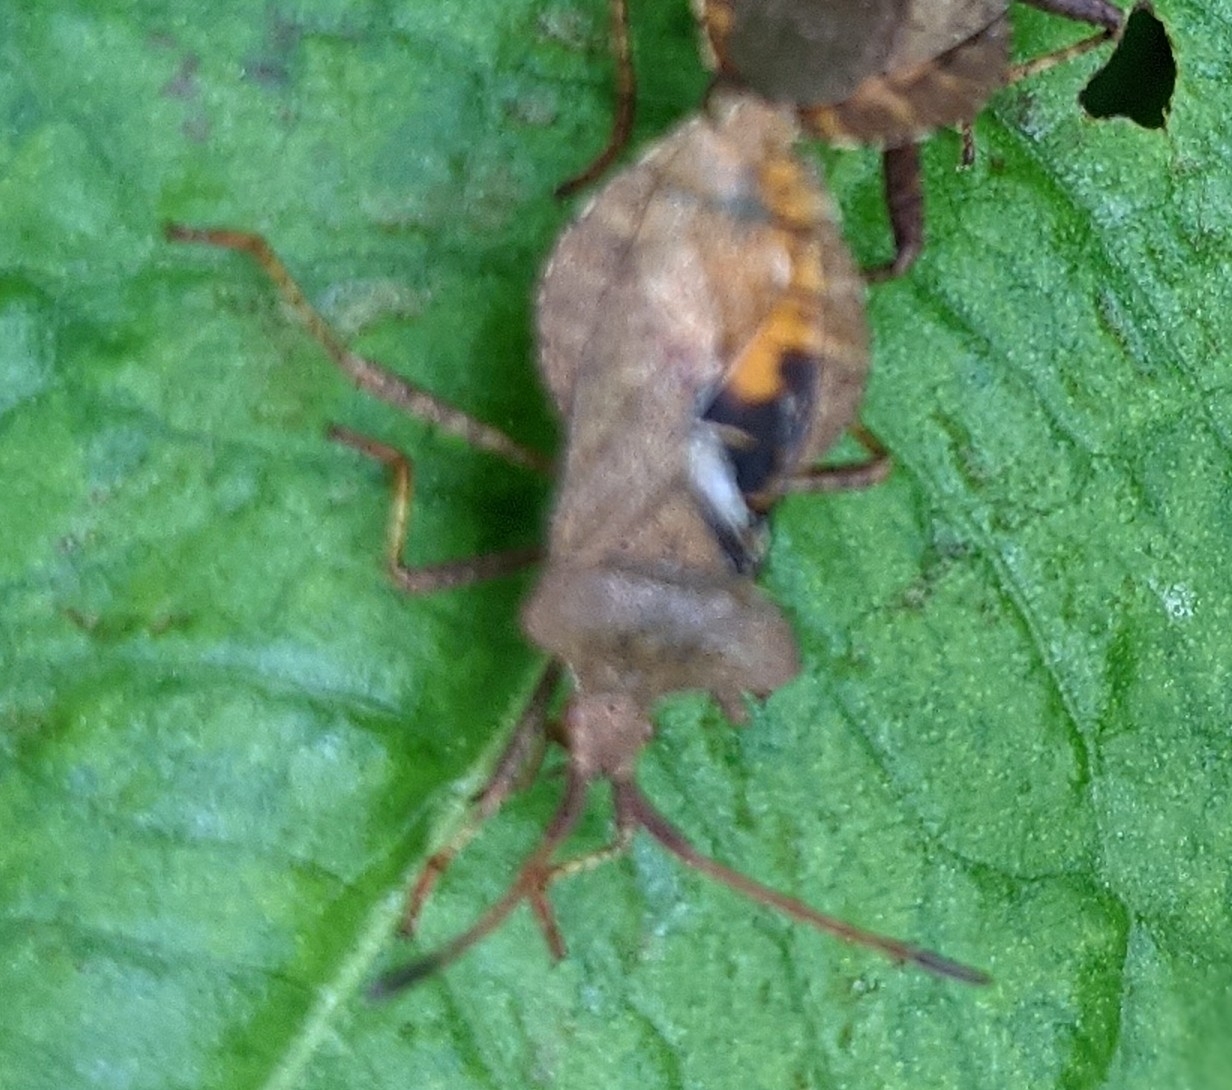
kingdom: Animalia
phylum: Arthropoda
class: Insecta
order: Hemiptera
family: Coreidae
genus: Coreus
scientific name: Coreus marginatus
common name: Dock bug
